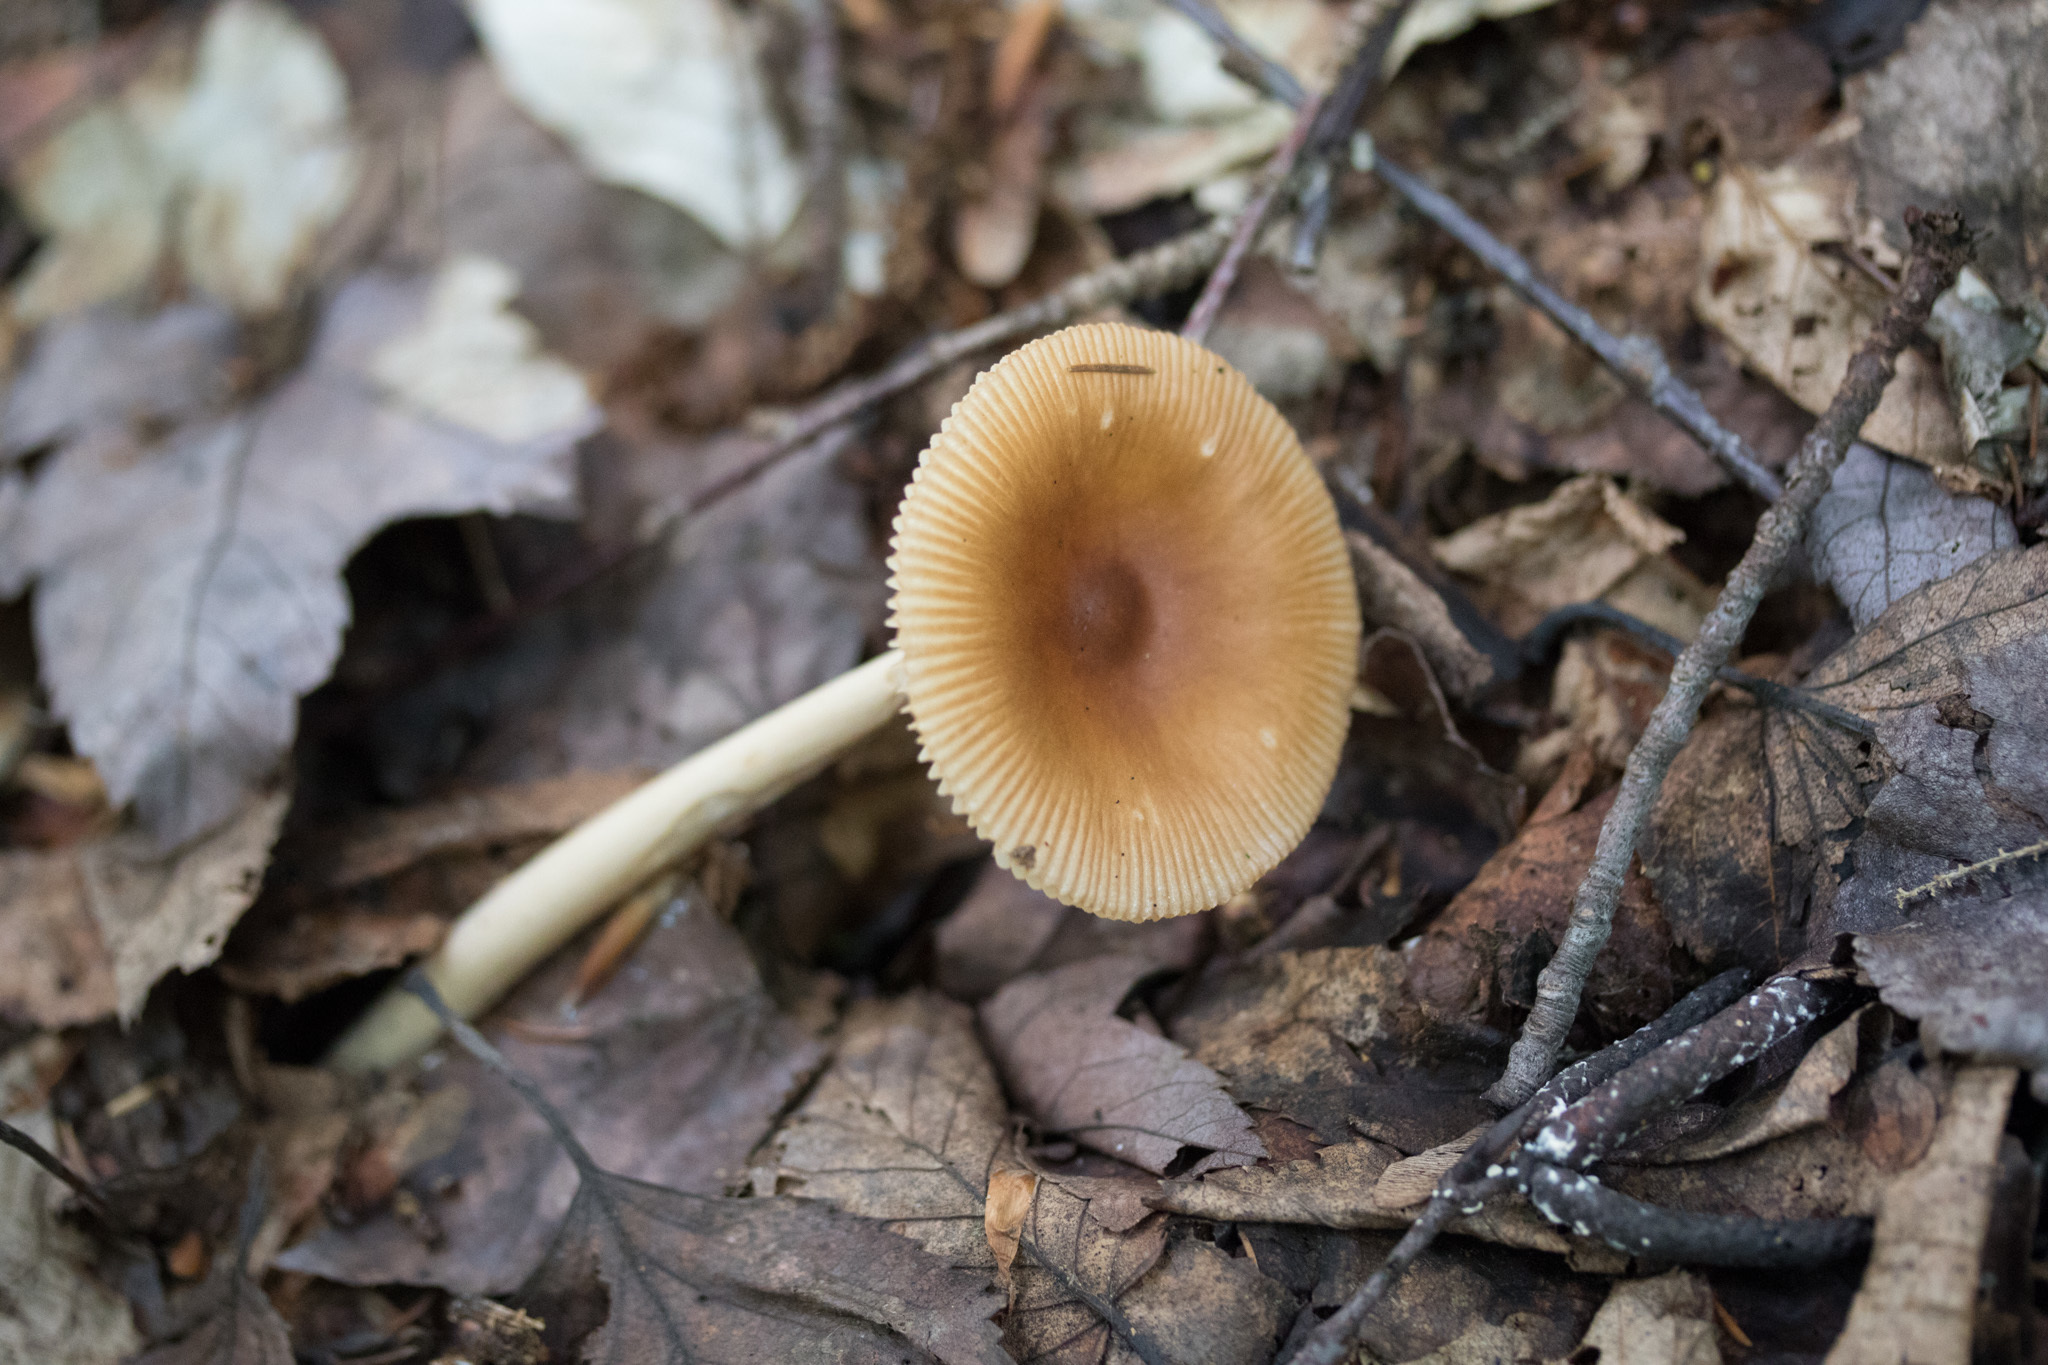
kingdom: Fungi
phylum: Basidiomycota
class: Agaricomycetes
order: Agaricales
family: Amanitaceae
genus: Amanita
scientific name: Amanita fulva
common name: Tawny grisette
